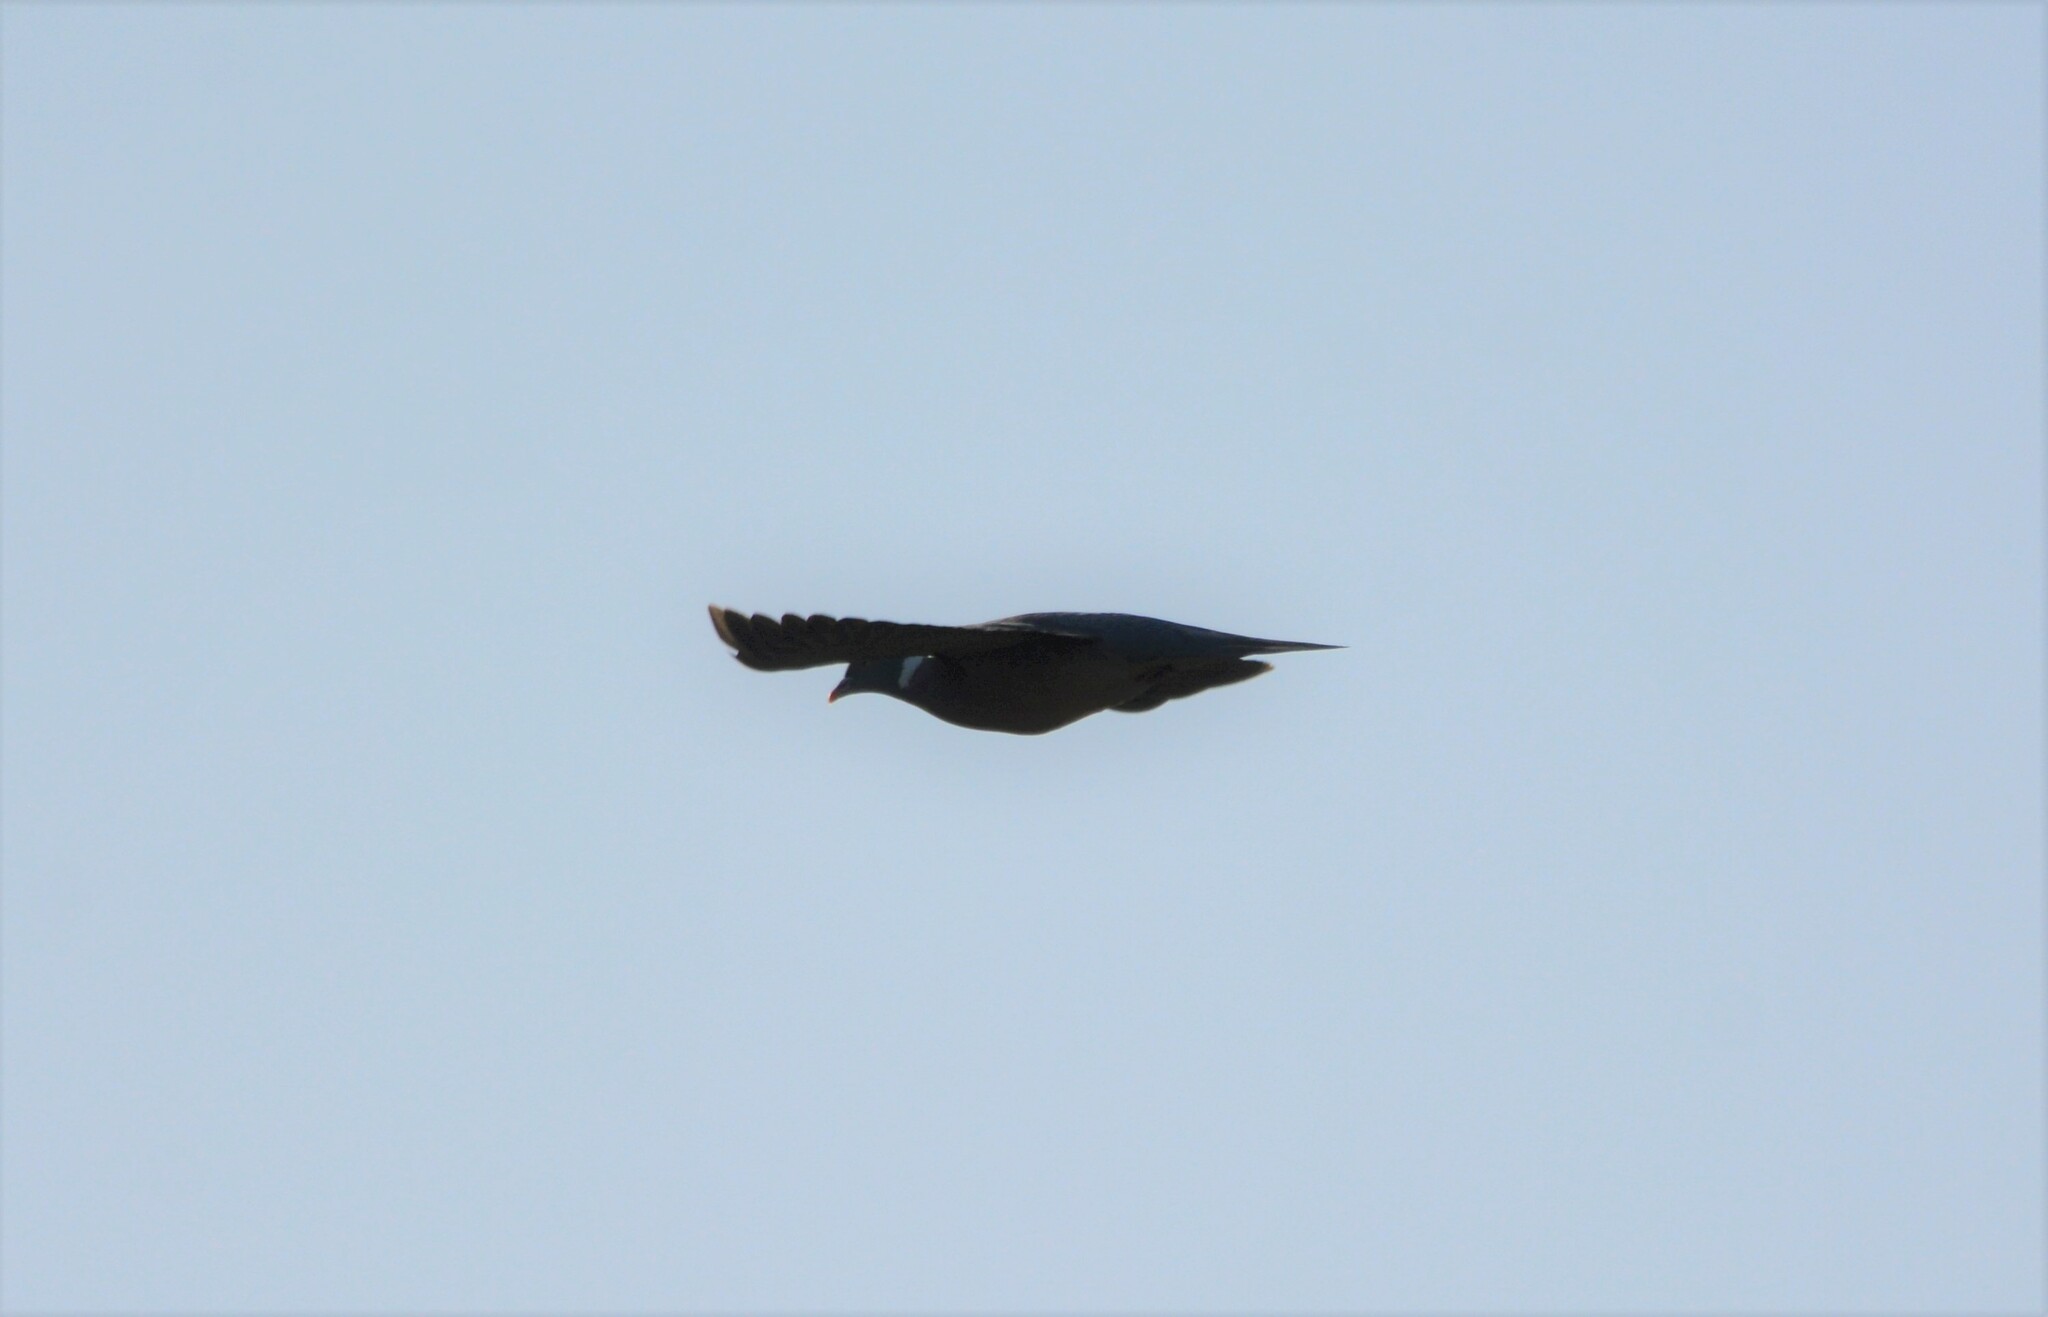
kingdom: Animalia
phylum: Chordata
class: Aves
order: Columbiformes
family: Columbidae
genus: Columba
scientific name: Columba palumbus
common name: Common wood pigeon
